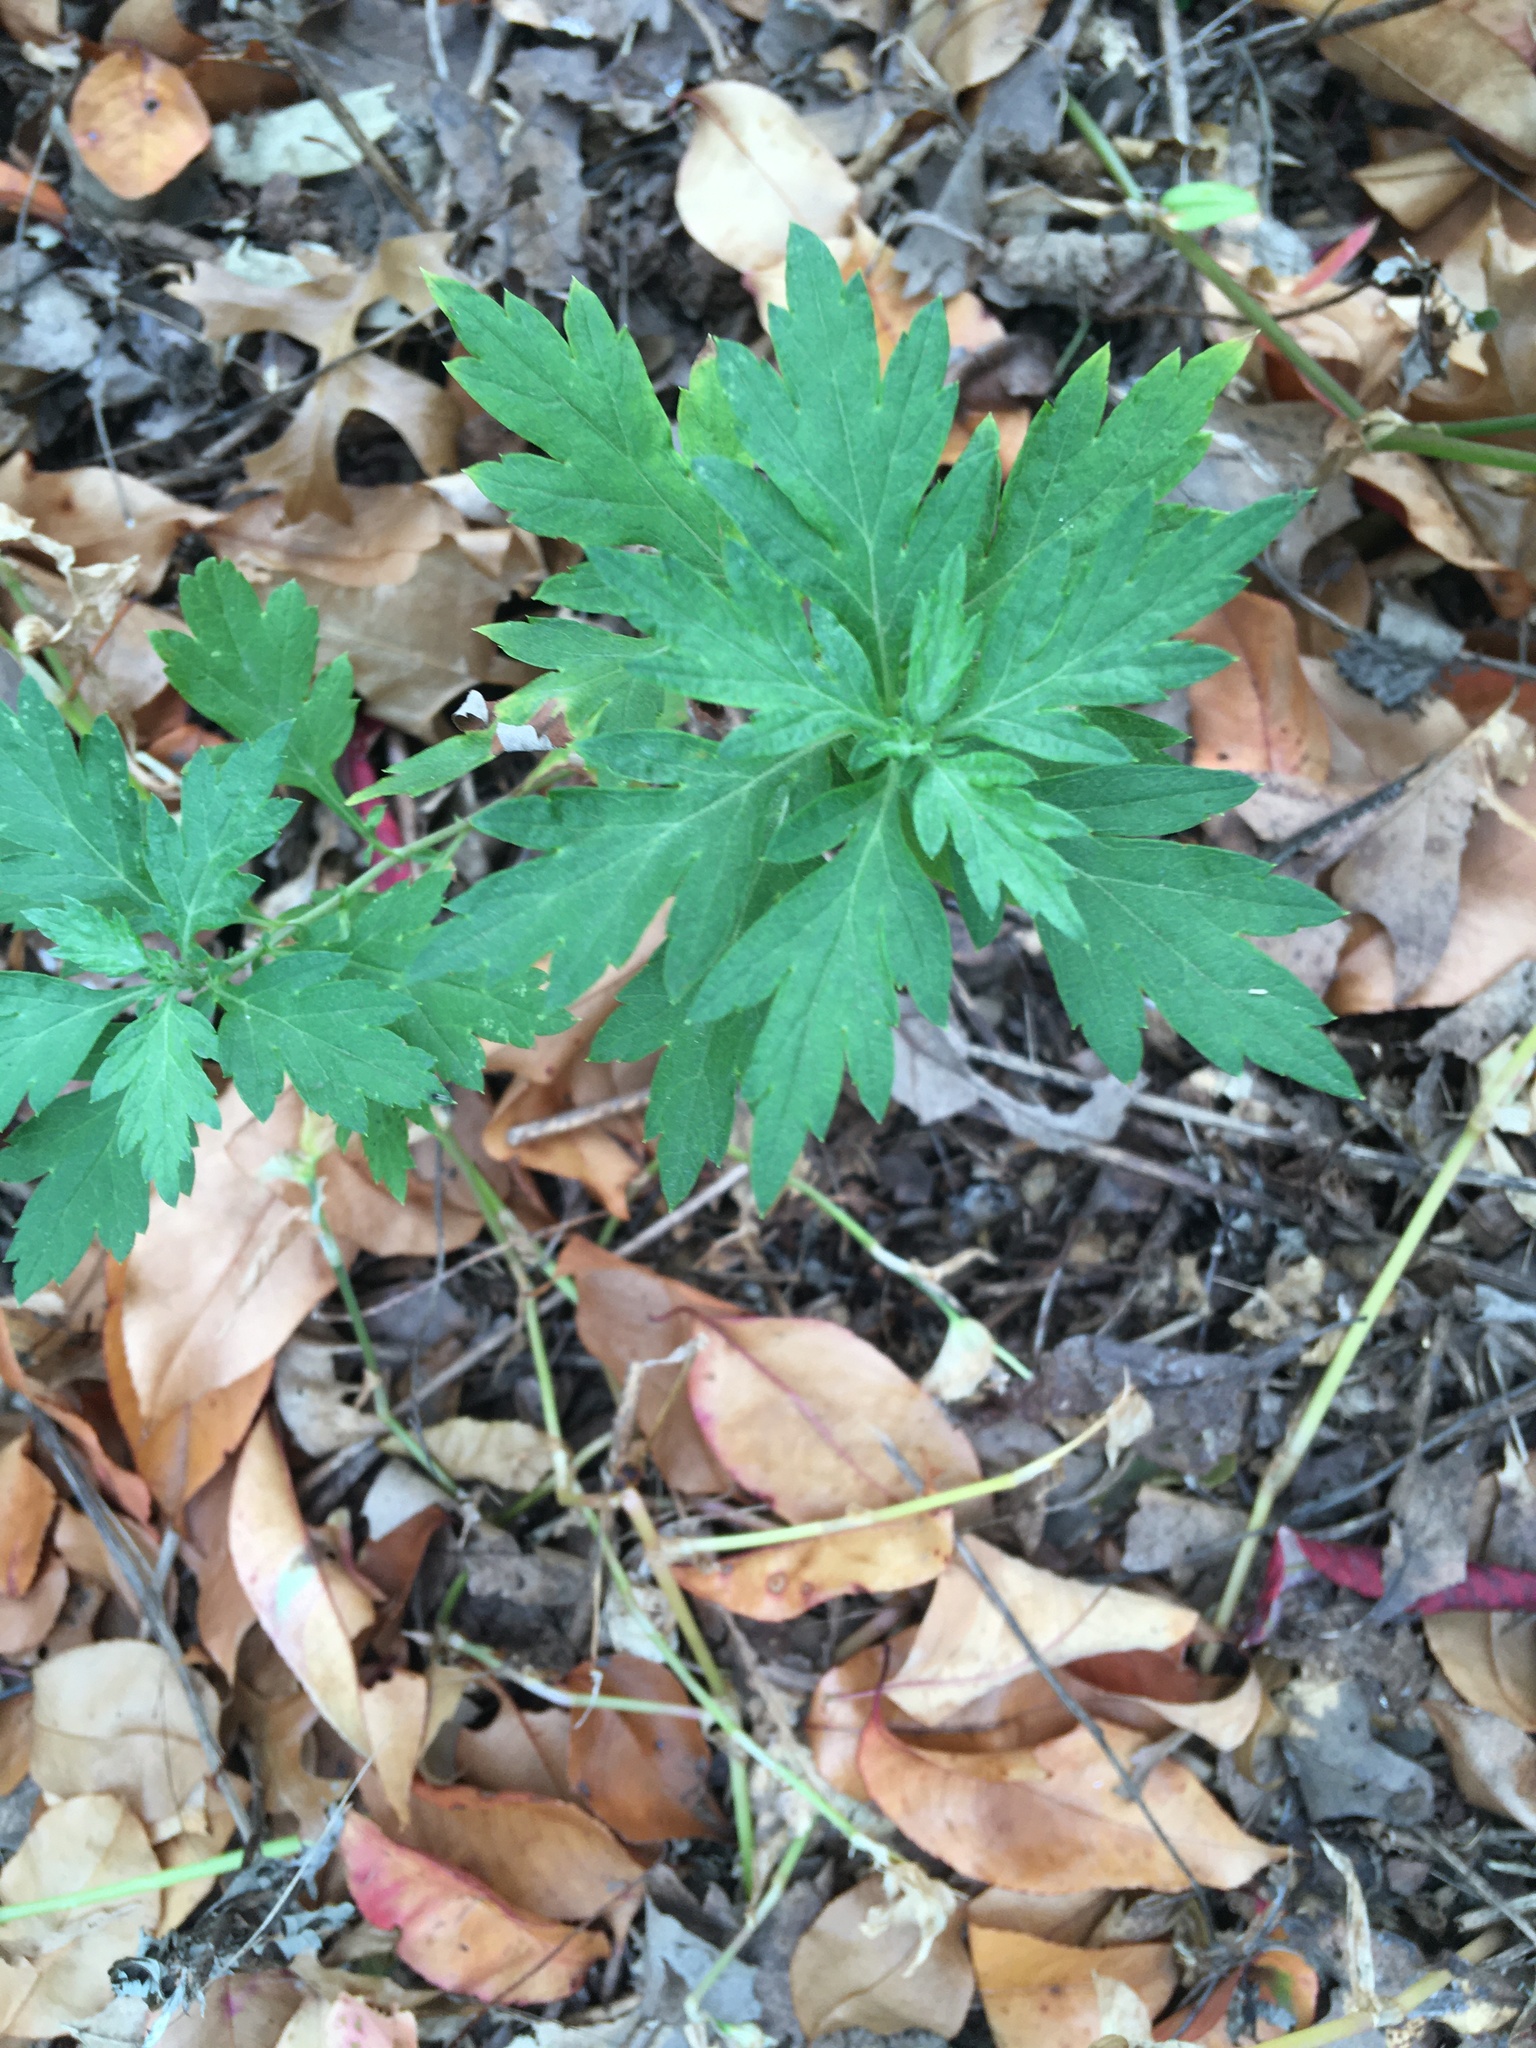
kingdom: Plantae
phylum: Tracheophyta
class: Magnoliopsida
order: Asterales
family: Asteraceae
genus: Artemisia
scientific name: Artemisia vulgaris
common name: Mugwort
